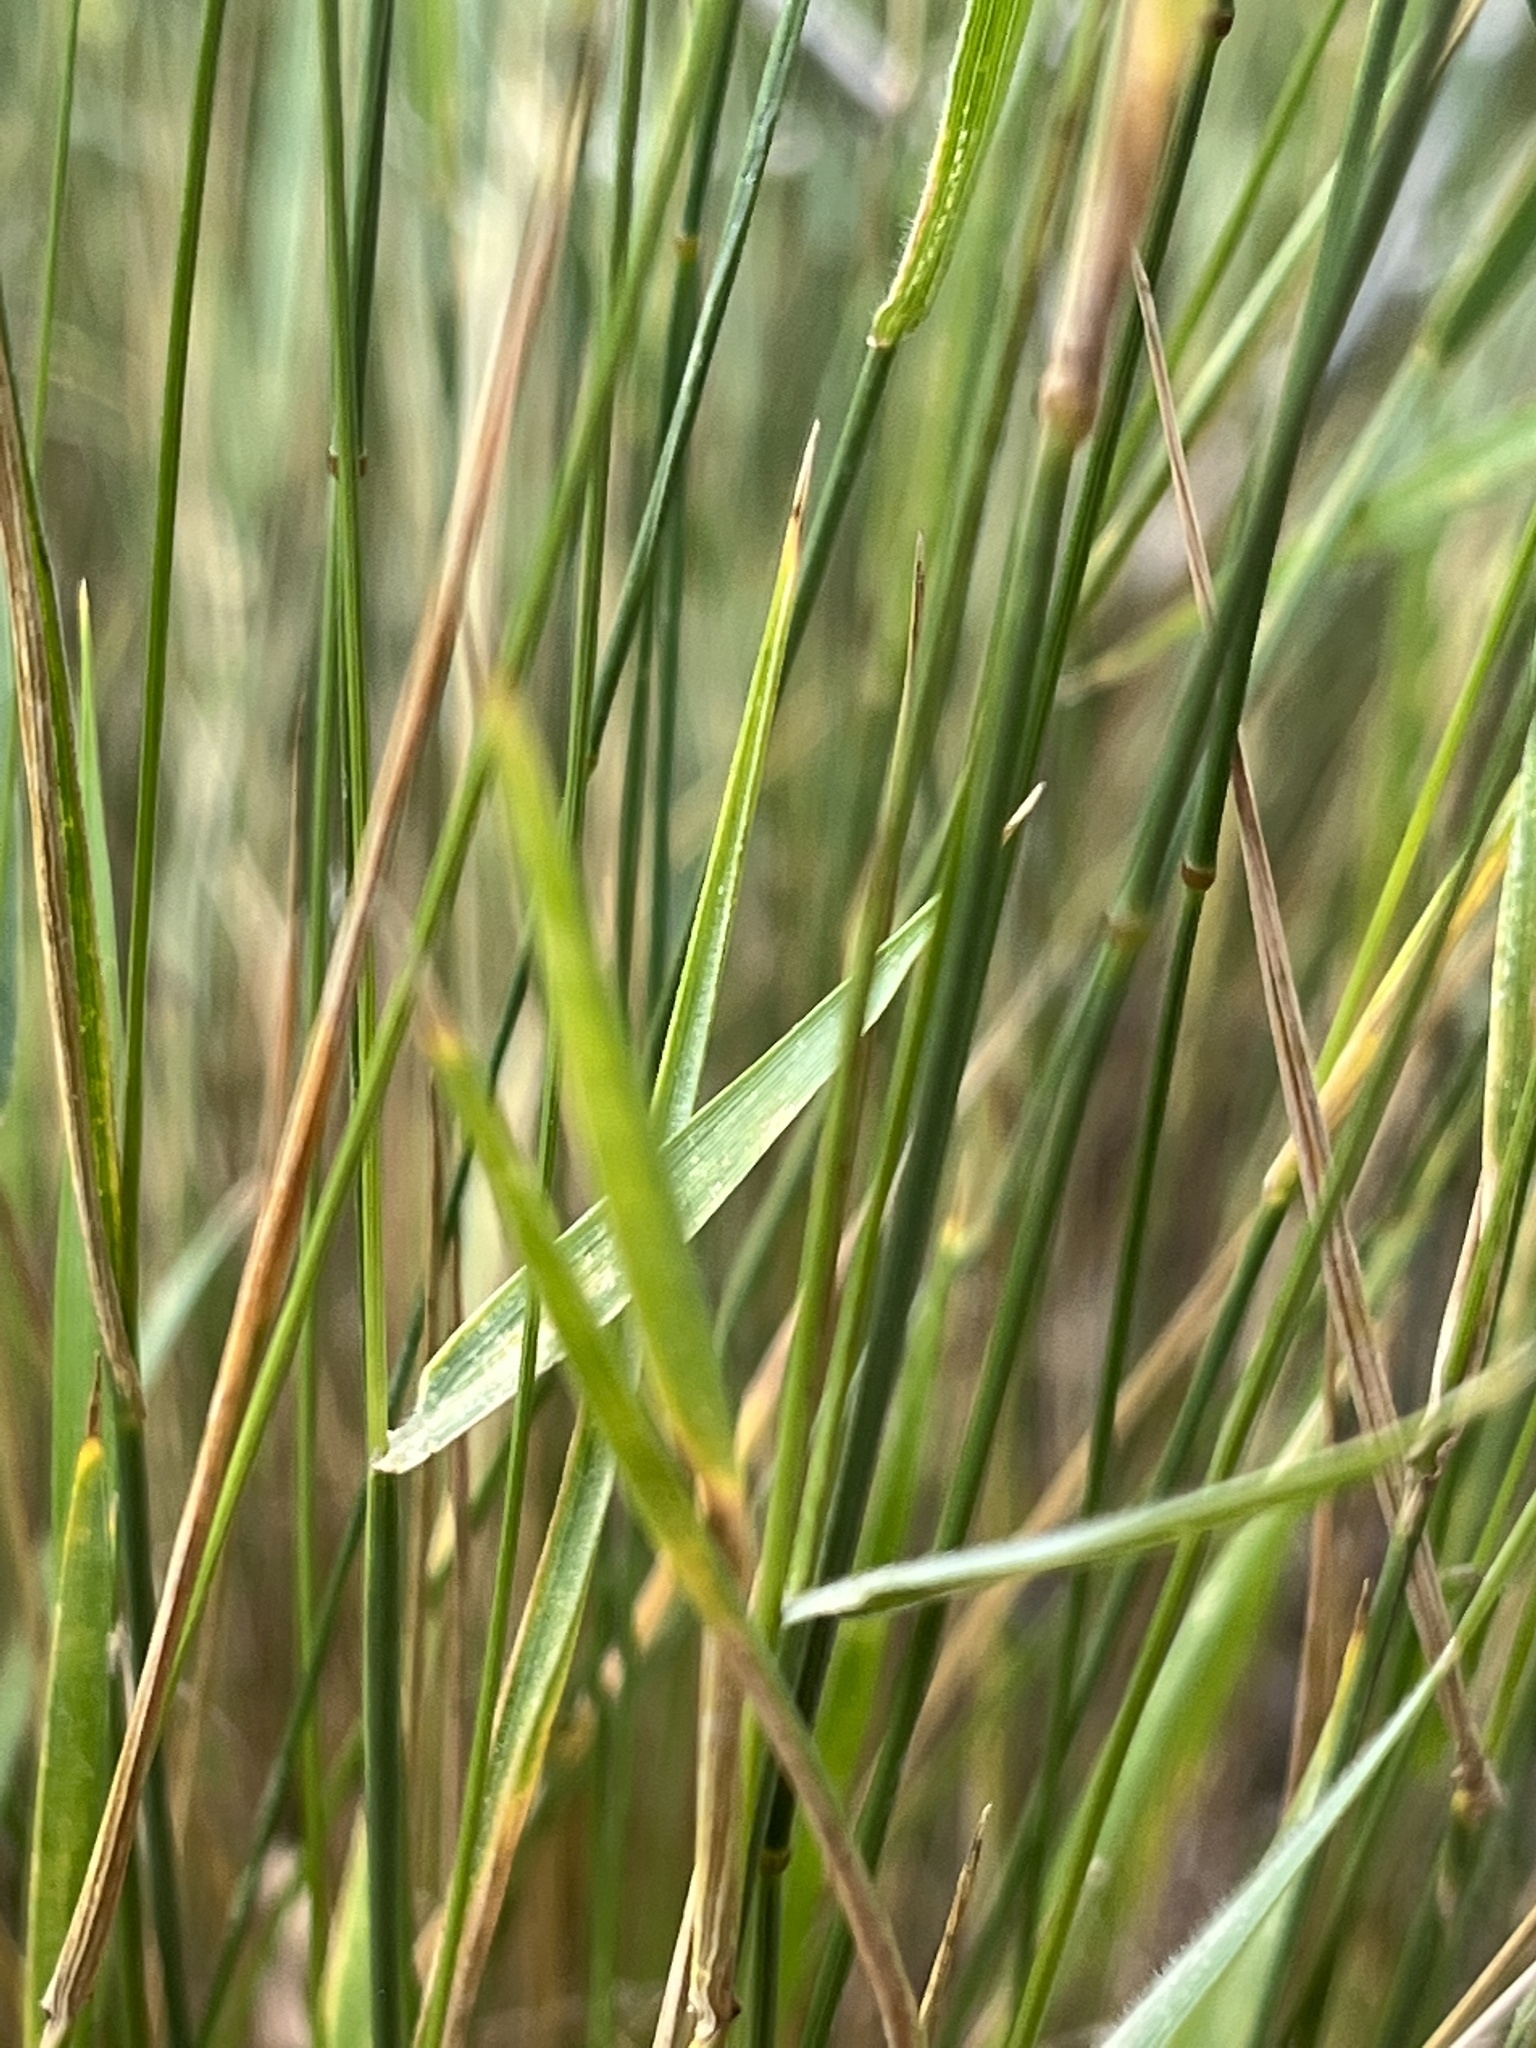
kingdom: Plantae
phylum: Tracheophyta
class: Liliopsida
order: Poales
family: Poaceae
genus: Agropyron
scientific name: Agropyron cristatum
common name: Crested wheatgrass
